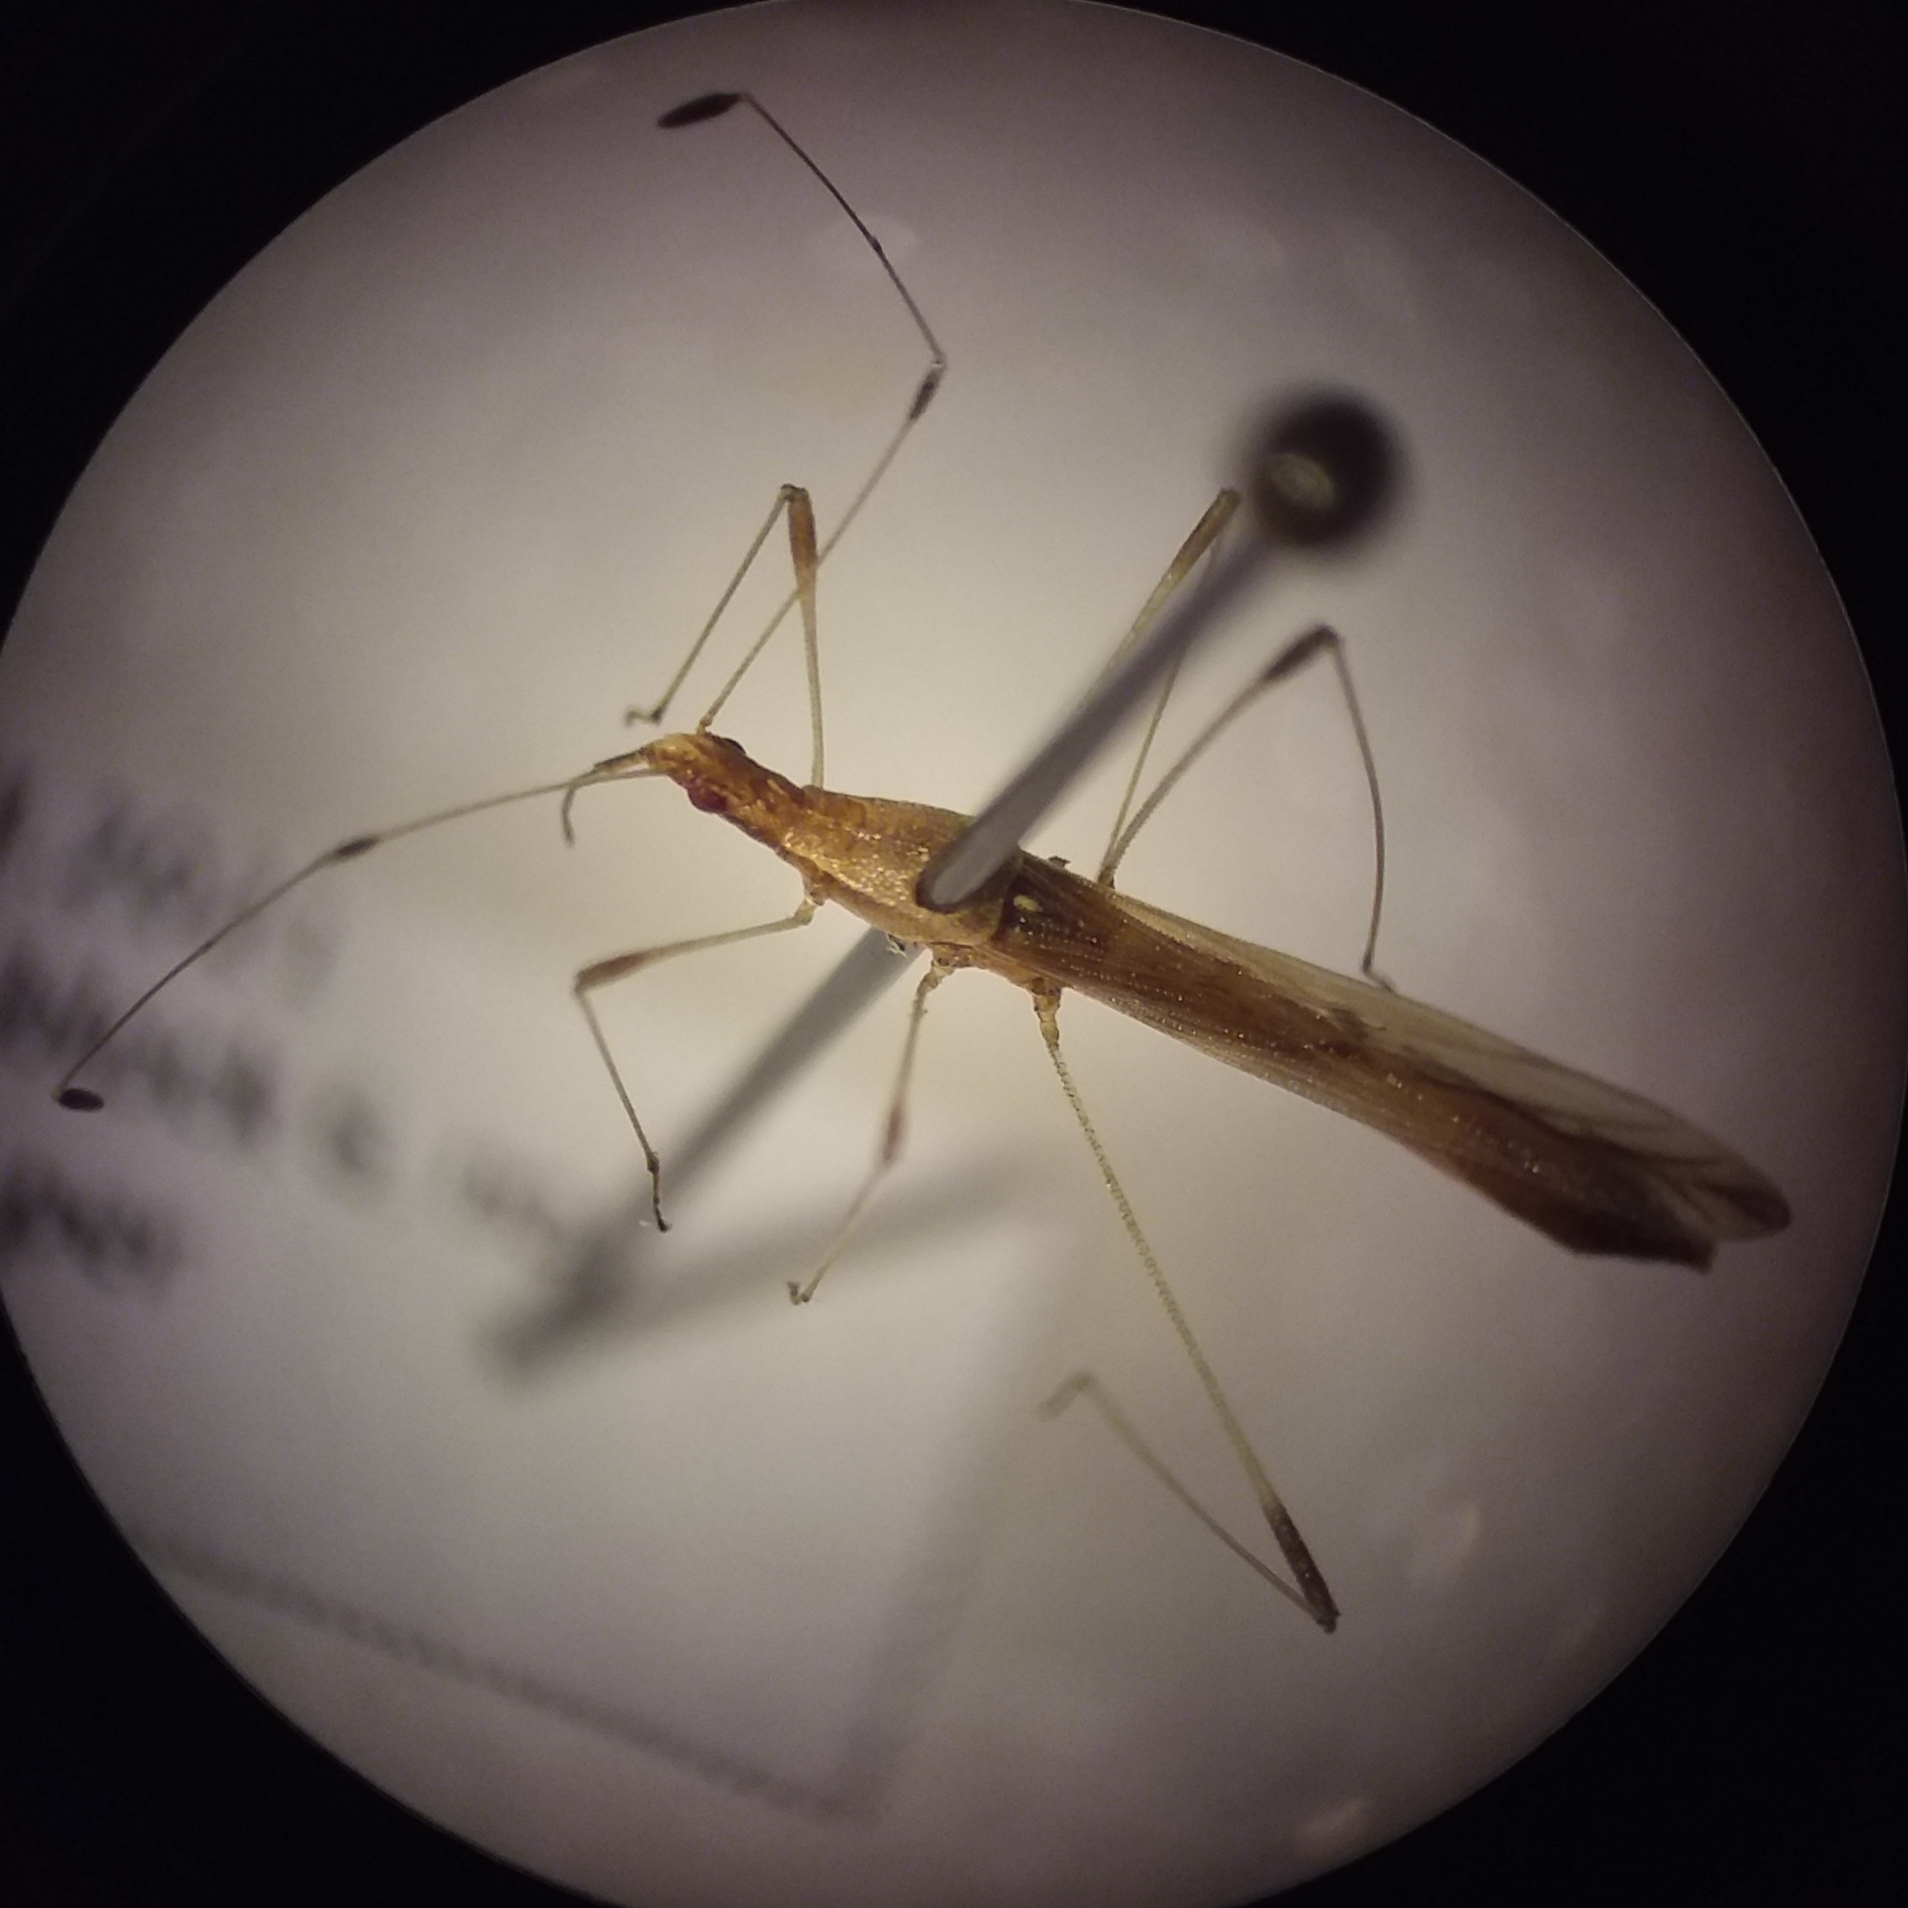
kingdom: Animalia
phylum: Arthropoda
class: Insecta
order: Hemiptera
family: Berytidae
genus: Neoneides
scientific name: Neoneides muticus
